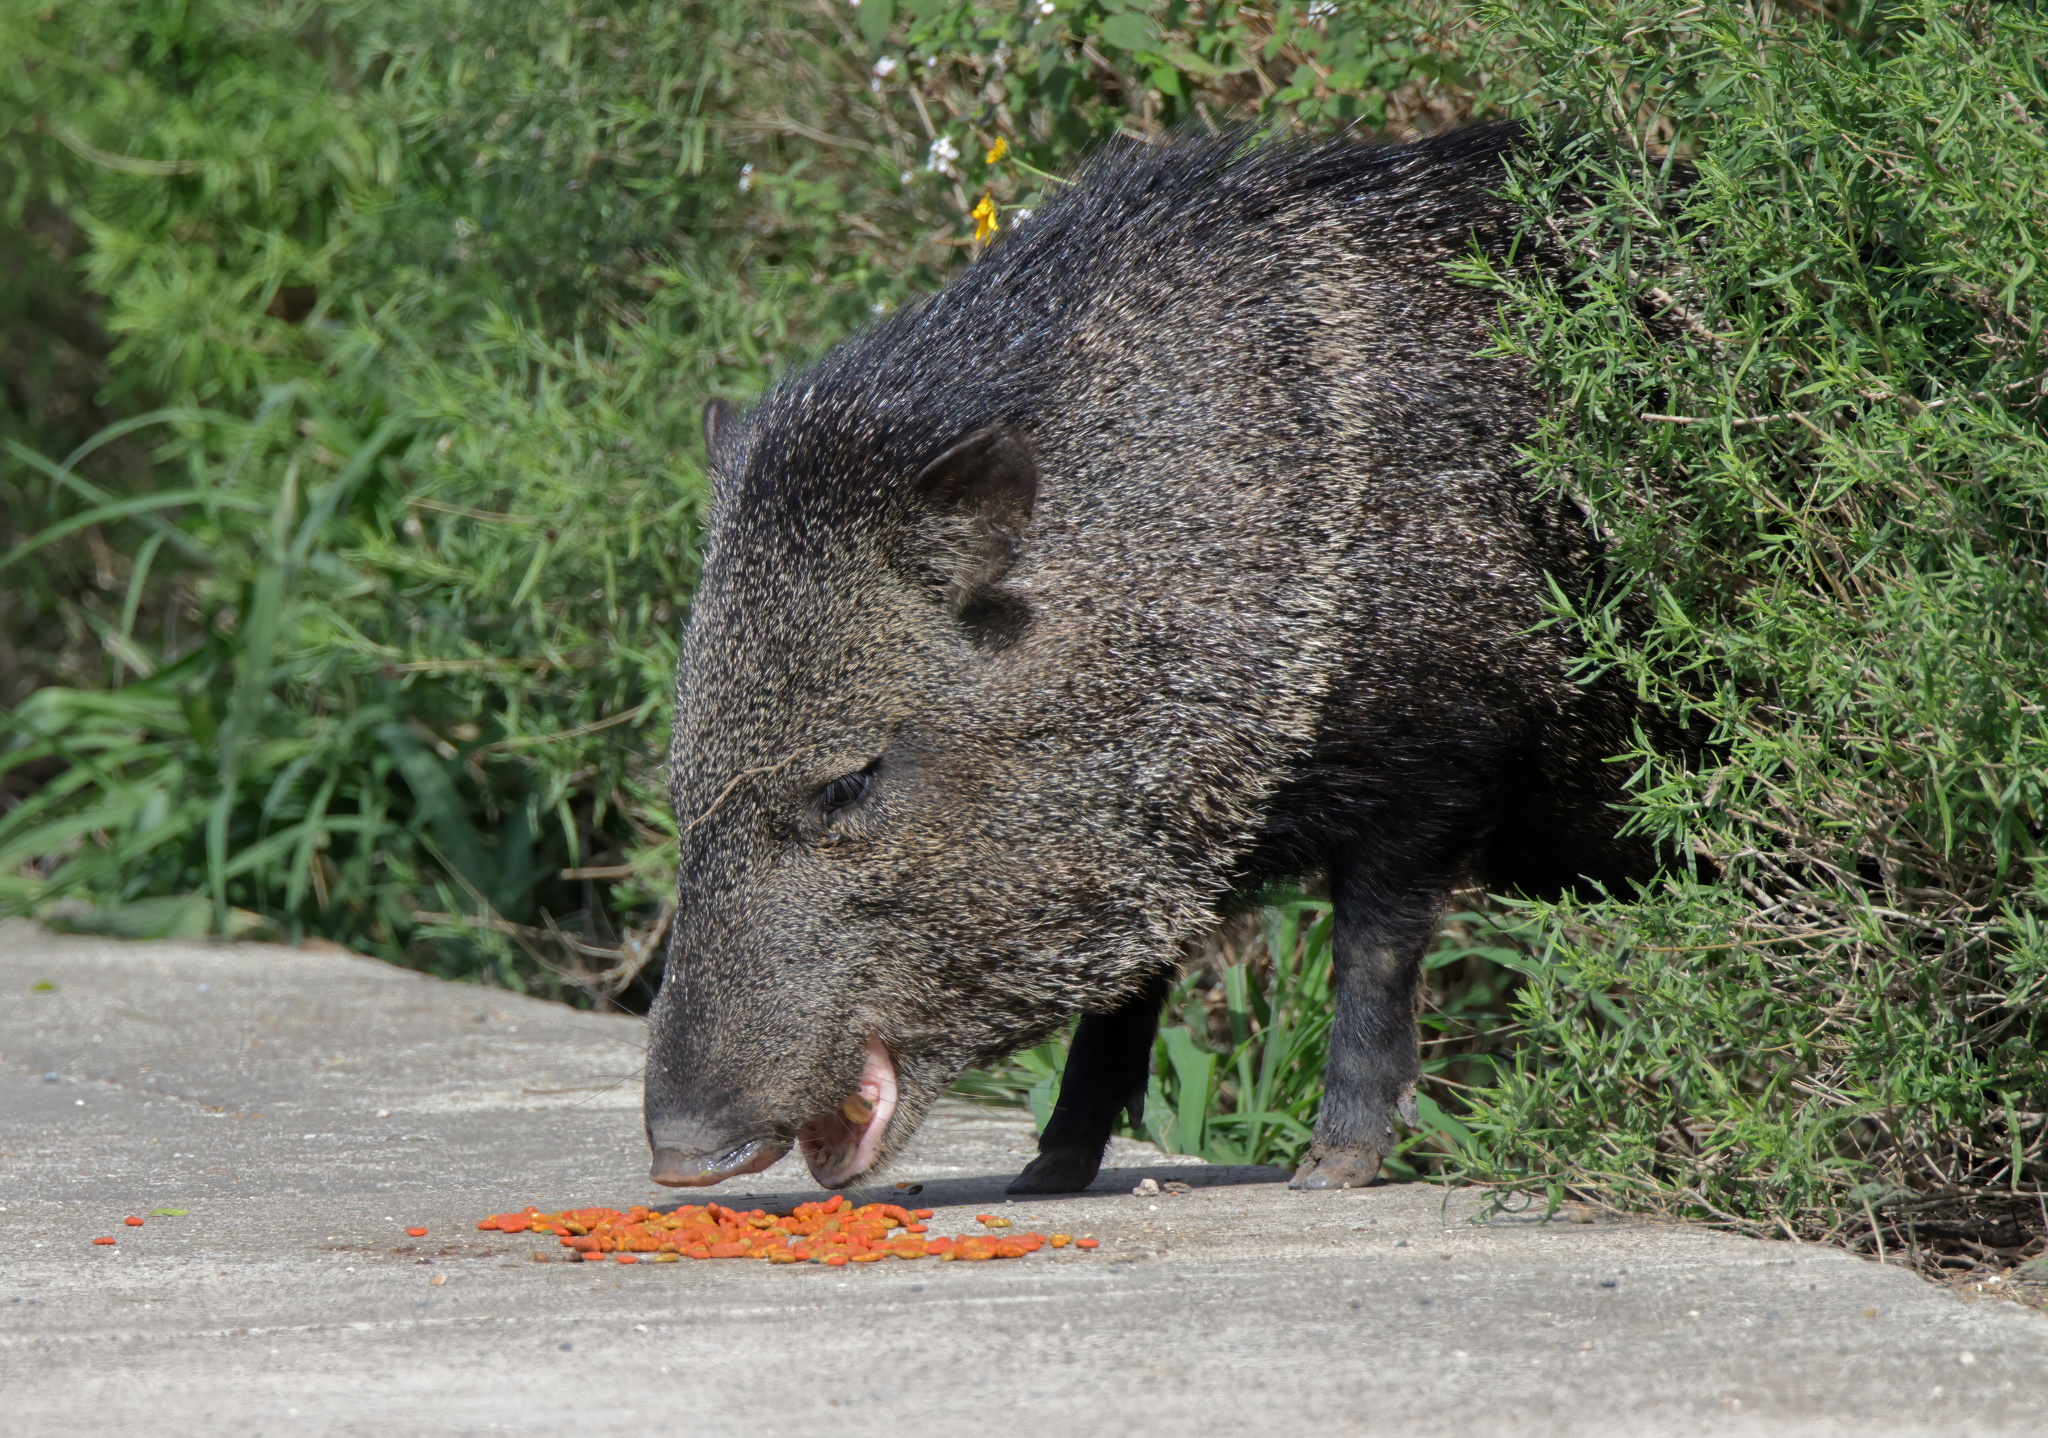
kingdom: Animalia
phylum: Chordata
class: Mammalia
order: Artiodactyla
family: Tayassuidae
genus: Pecari
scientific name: Pecari tajacu
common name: Collared peccary
